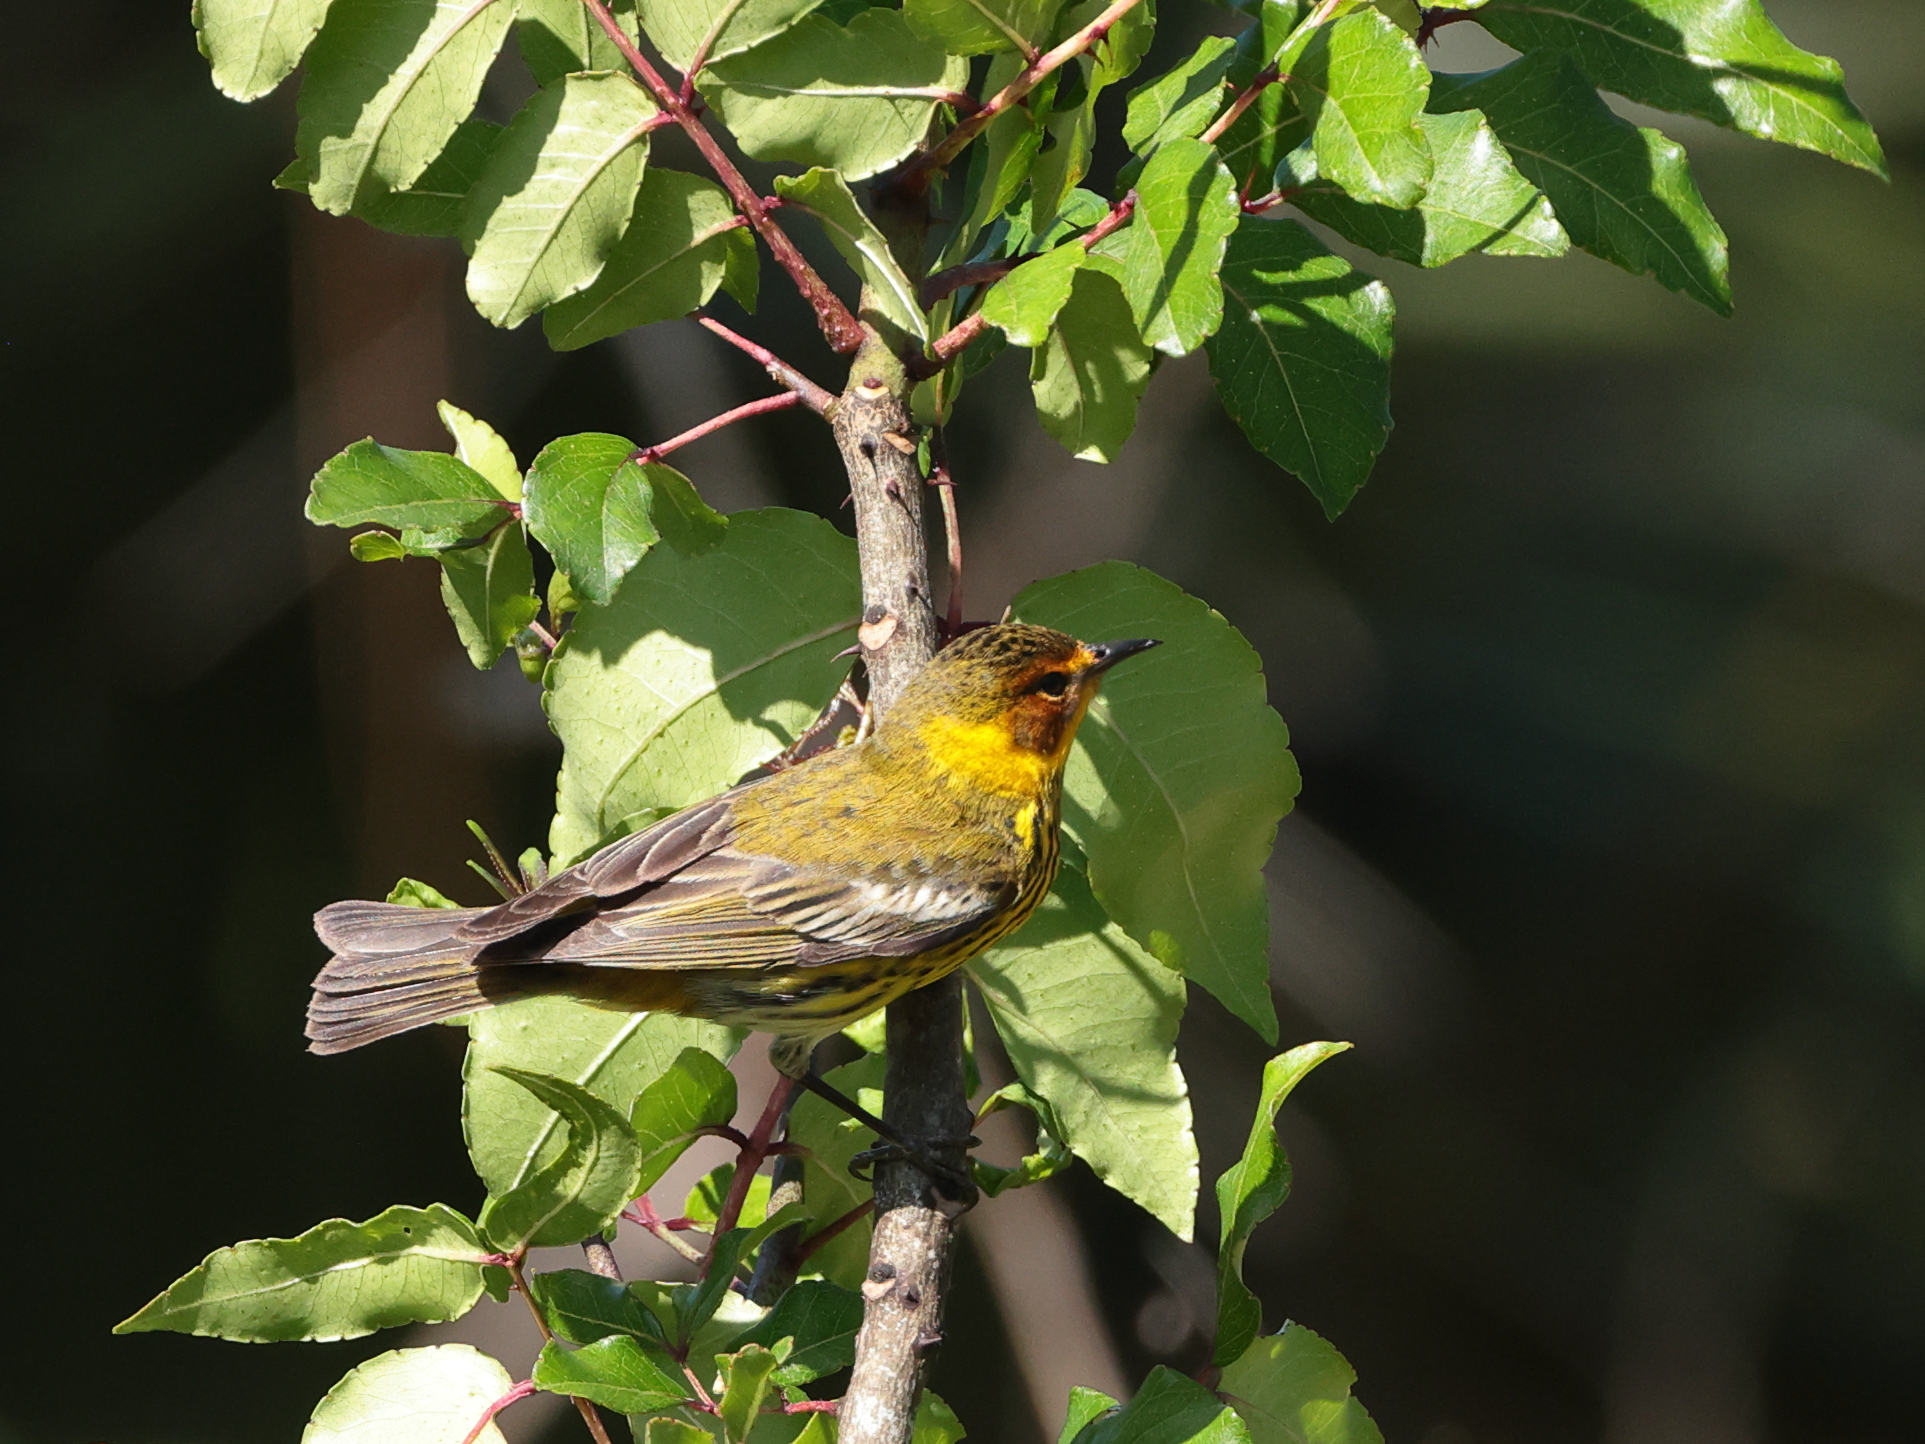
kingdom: Animalia
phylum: Chordata
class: Aves
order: Passeriformes
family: Parulidae
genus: Setophaga
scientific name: Setophaga tigrina
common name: Cape may warbler
